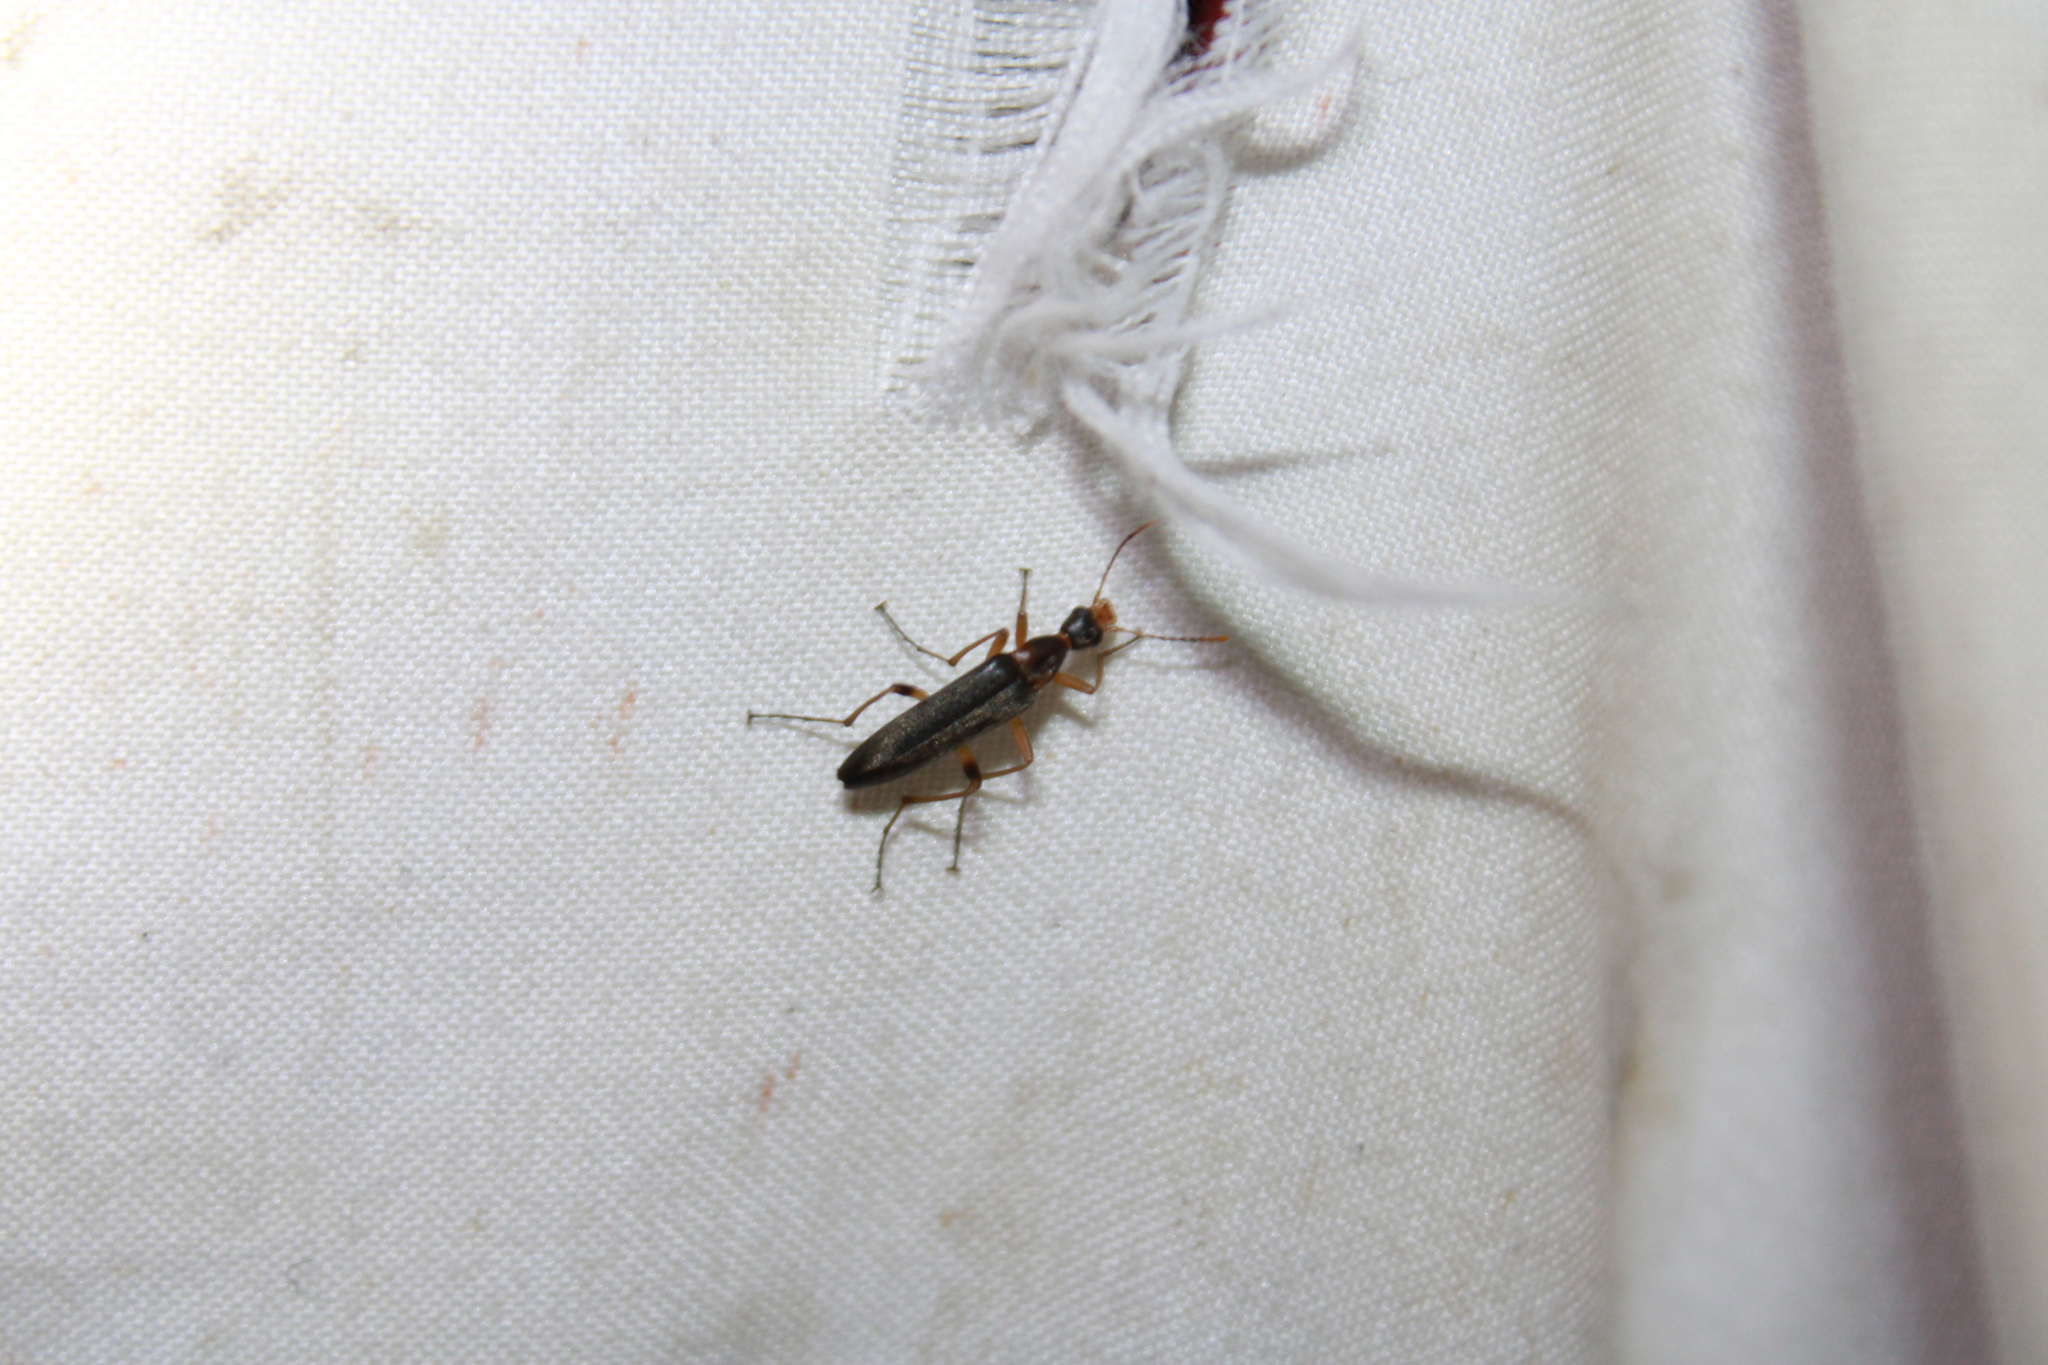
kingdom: Animalia
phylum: Arthropoda
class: Insecta
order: Coleoptera
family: Stenotrachelidae
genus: Cephaloon
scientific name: Cephaloon lepturides
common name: False leptura beetle
